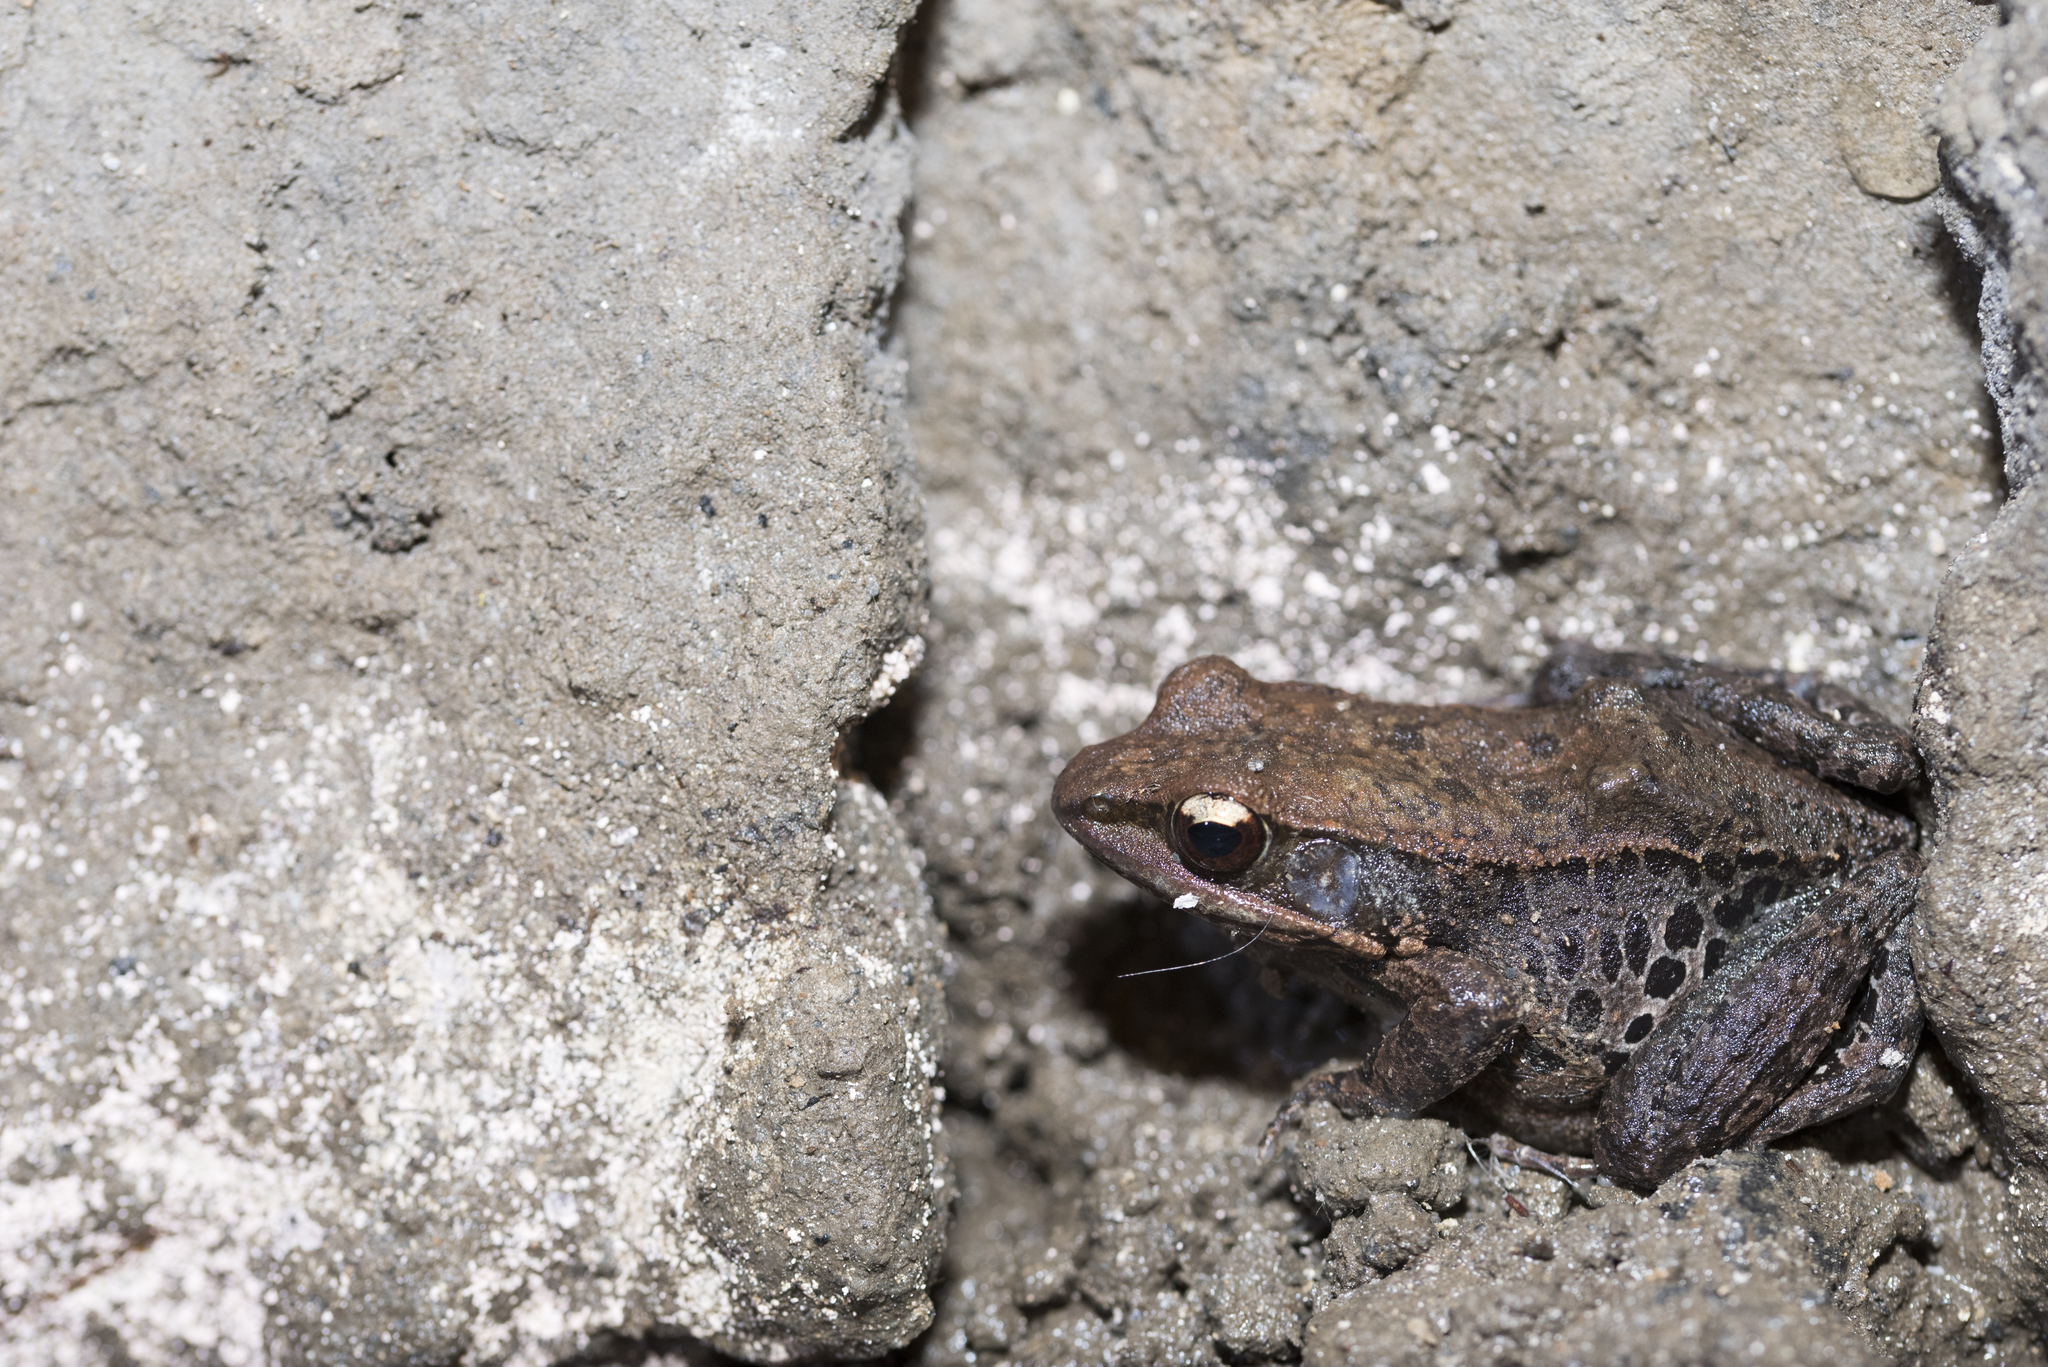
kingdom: Animalia
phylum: Chordata
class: Amphibia
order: Anura
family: Ranidae
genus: Hylarana
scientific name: Hylarana latouchii
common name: Broad-folded frog
